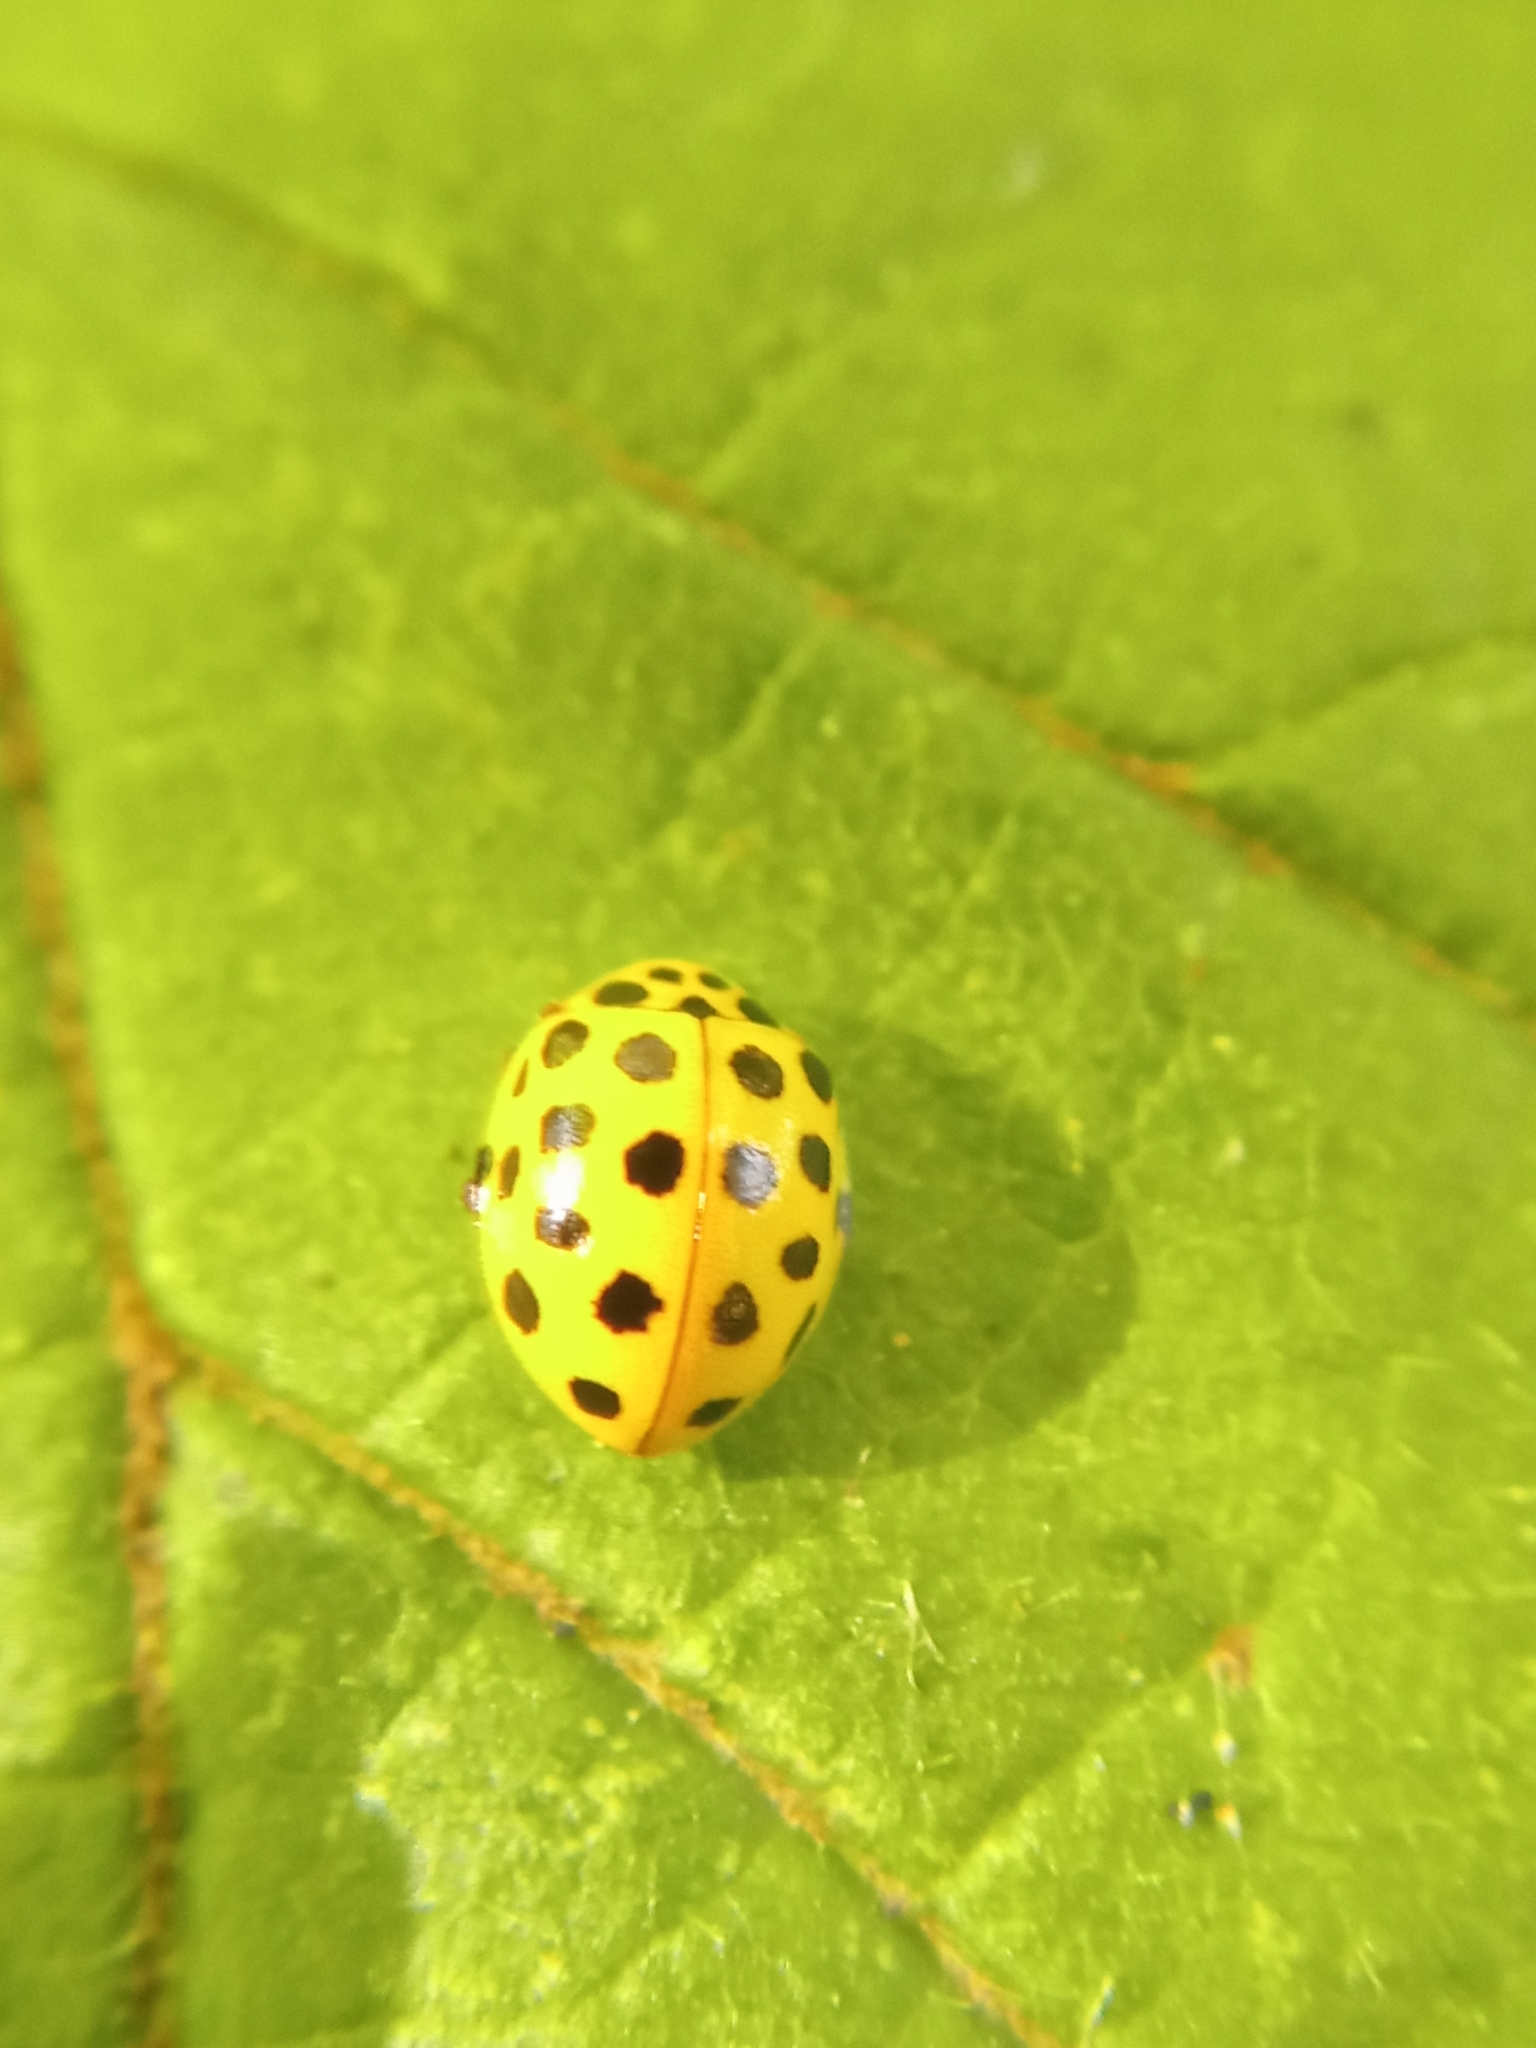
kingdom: Animalia
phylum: Arthropoda
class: Insecta
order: Coleoptera
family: Coccinellidae
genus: Psyllobora
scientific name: Psyllobora vigintiduopunctata
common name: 22-spot ladybird
